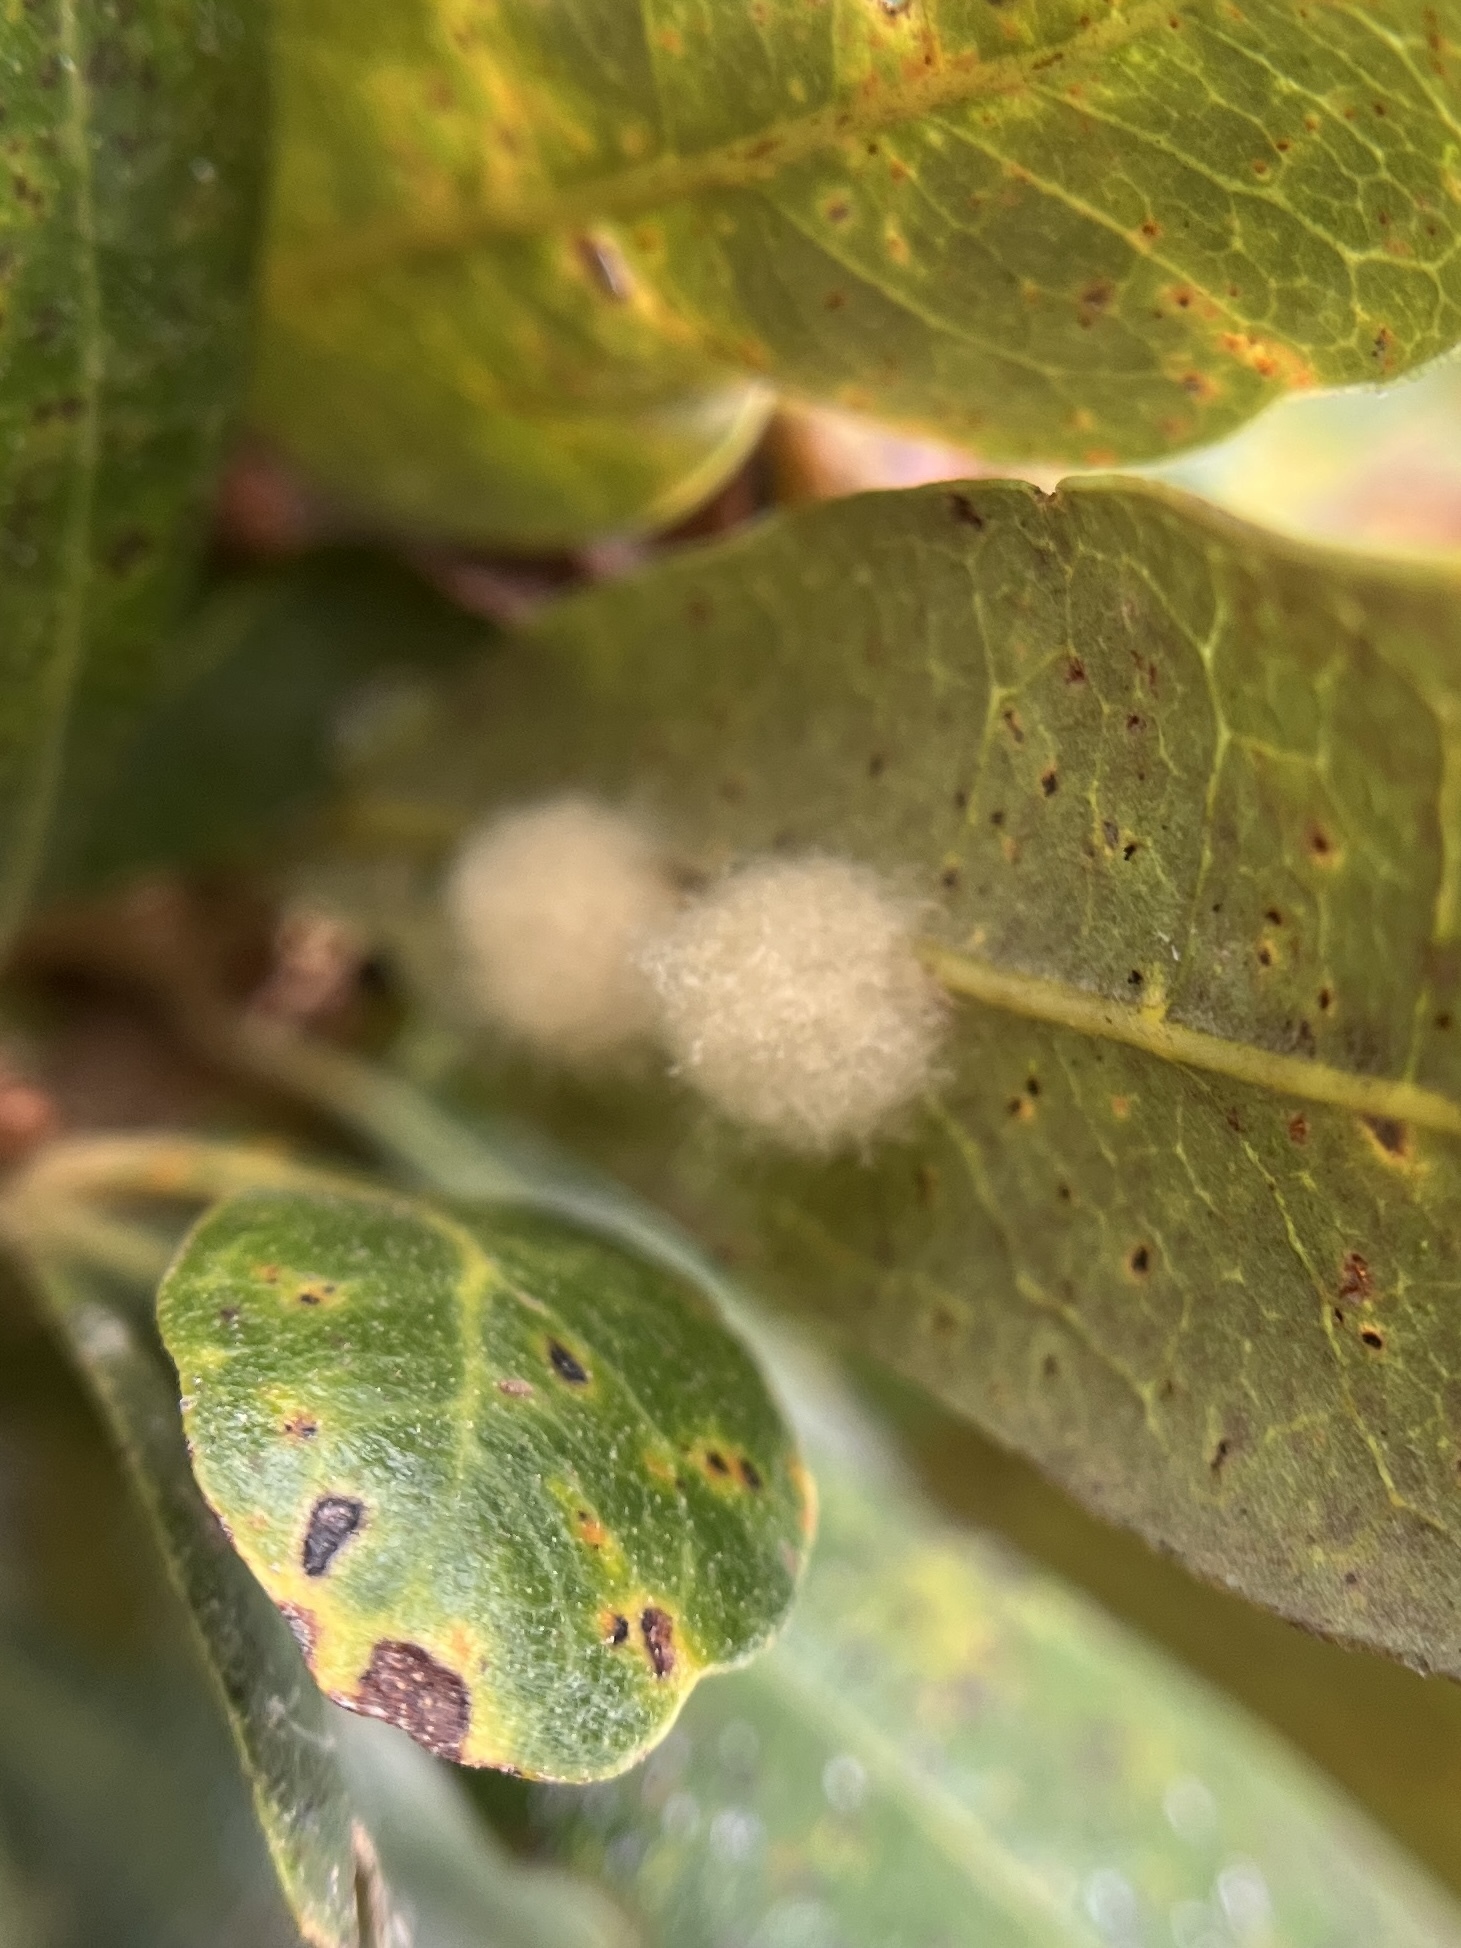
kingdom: Animalia
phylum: Arthropoda
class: Insecta
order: Hymenoptera
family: Cynipidae
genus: Andricus
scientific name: Andricus Druon quercuslanigerum
